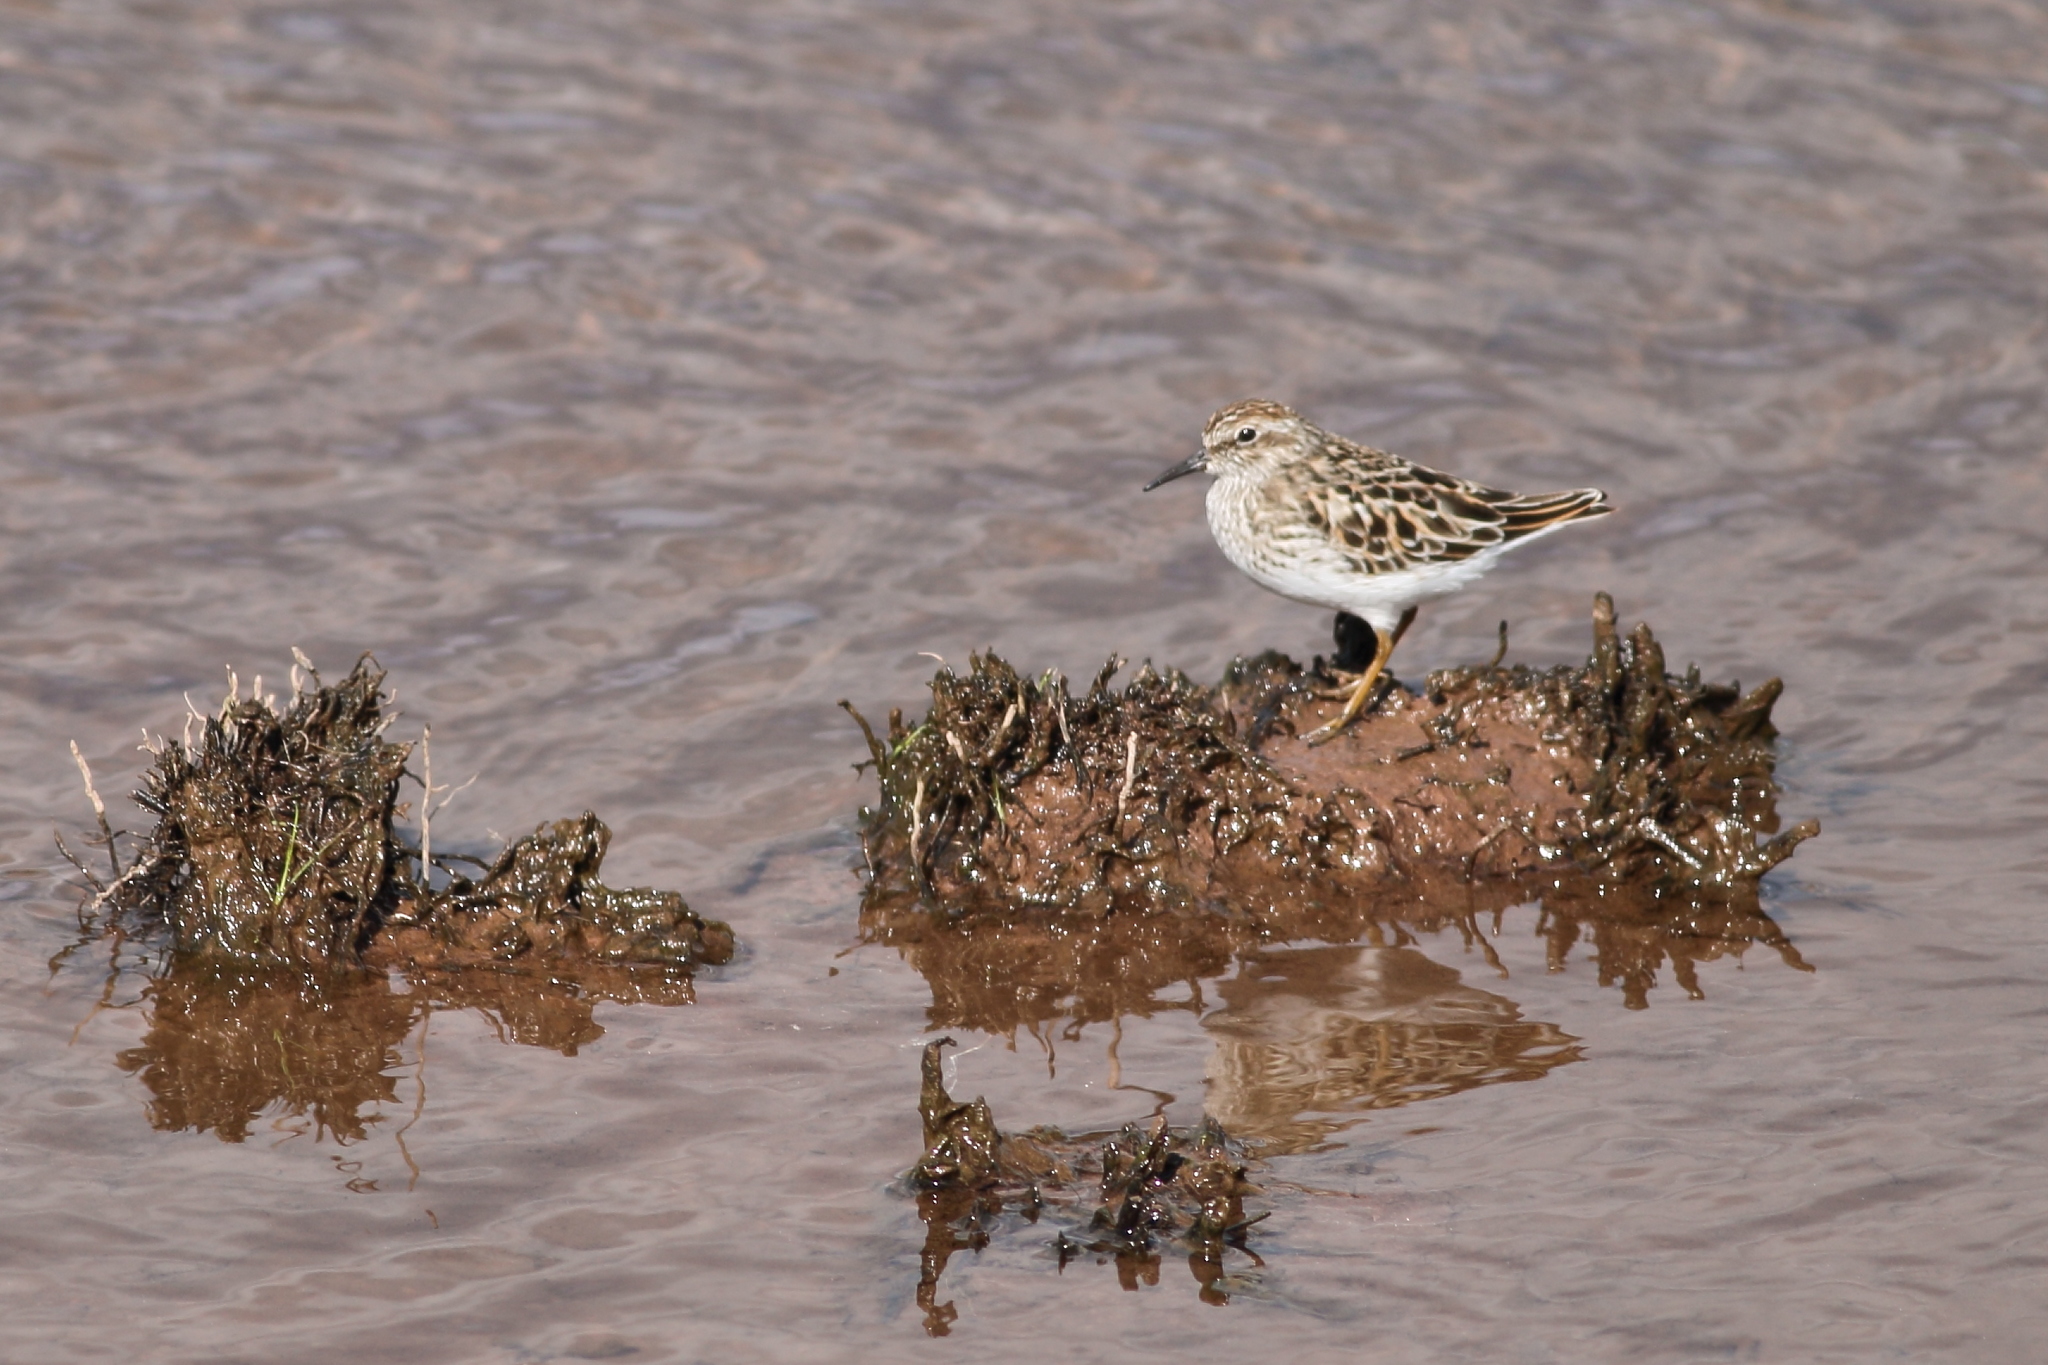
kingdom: Animalia
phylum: Chordata
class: Aves
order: Charadriiformes
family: Scolopacidae
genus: Calidris
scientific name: Calidris minutilla
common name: Least sandpiper
